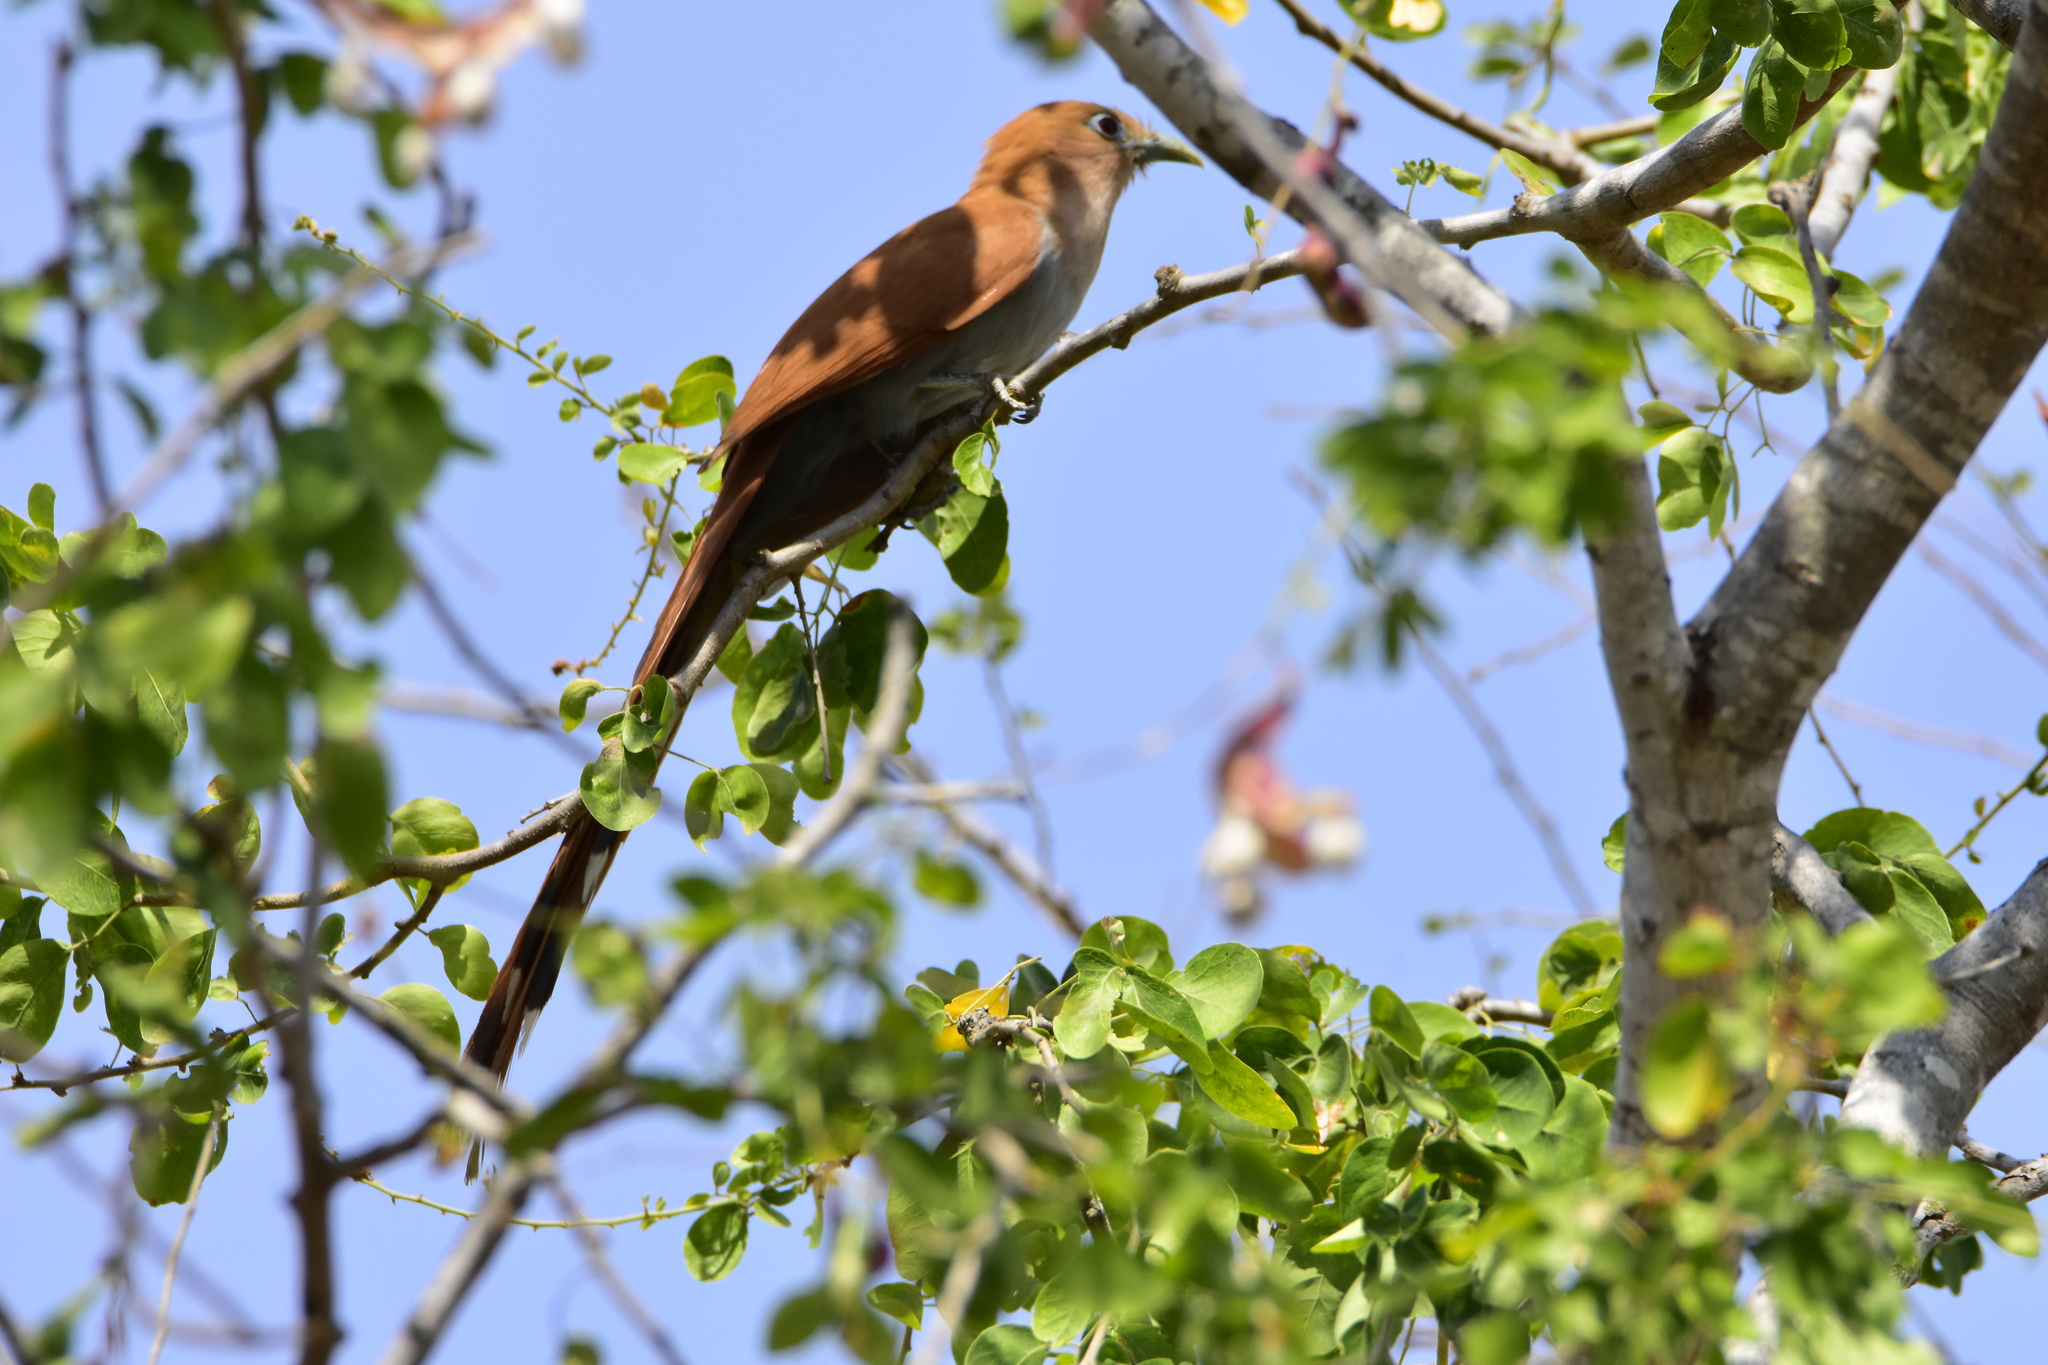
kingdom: Animalia
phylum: Chordata
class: Aves
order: Cuculiformes
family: Cuculidae
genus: Piaya
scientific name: Piaya cayana
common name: Squirrel cuckoo
